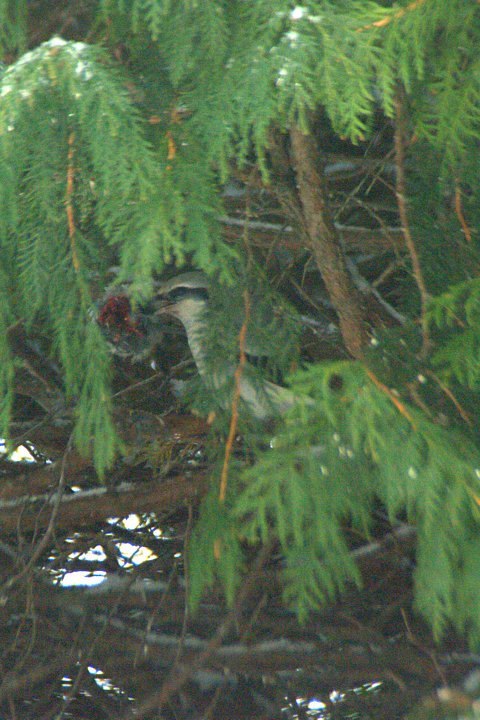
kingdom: Animalia
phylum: Chordata
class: Aves
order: Passeriformes
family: Laniidae
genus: Lanius
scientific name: Lanius borealis
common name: Northern shrike
